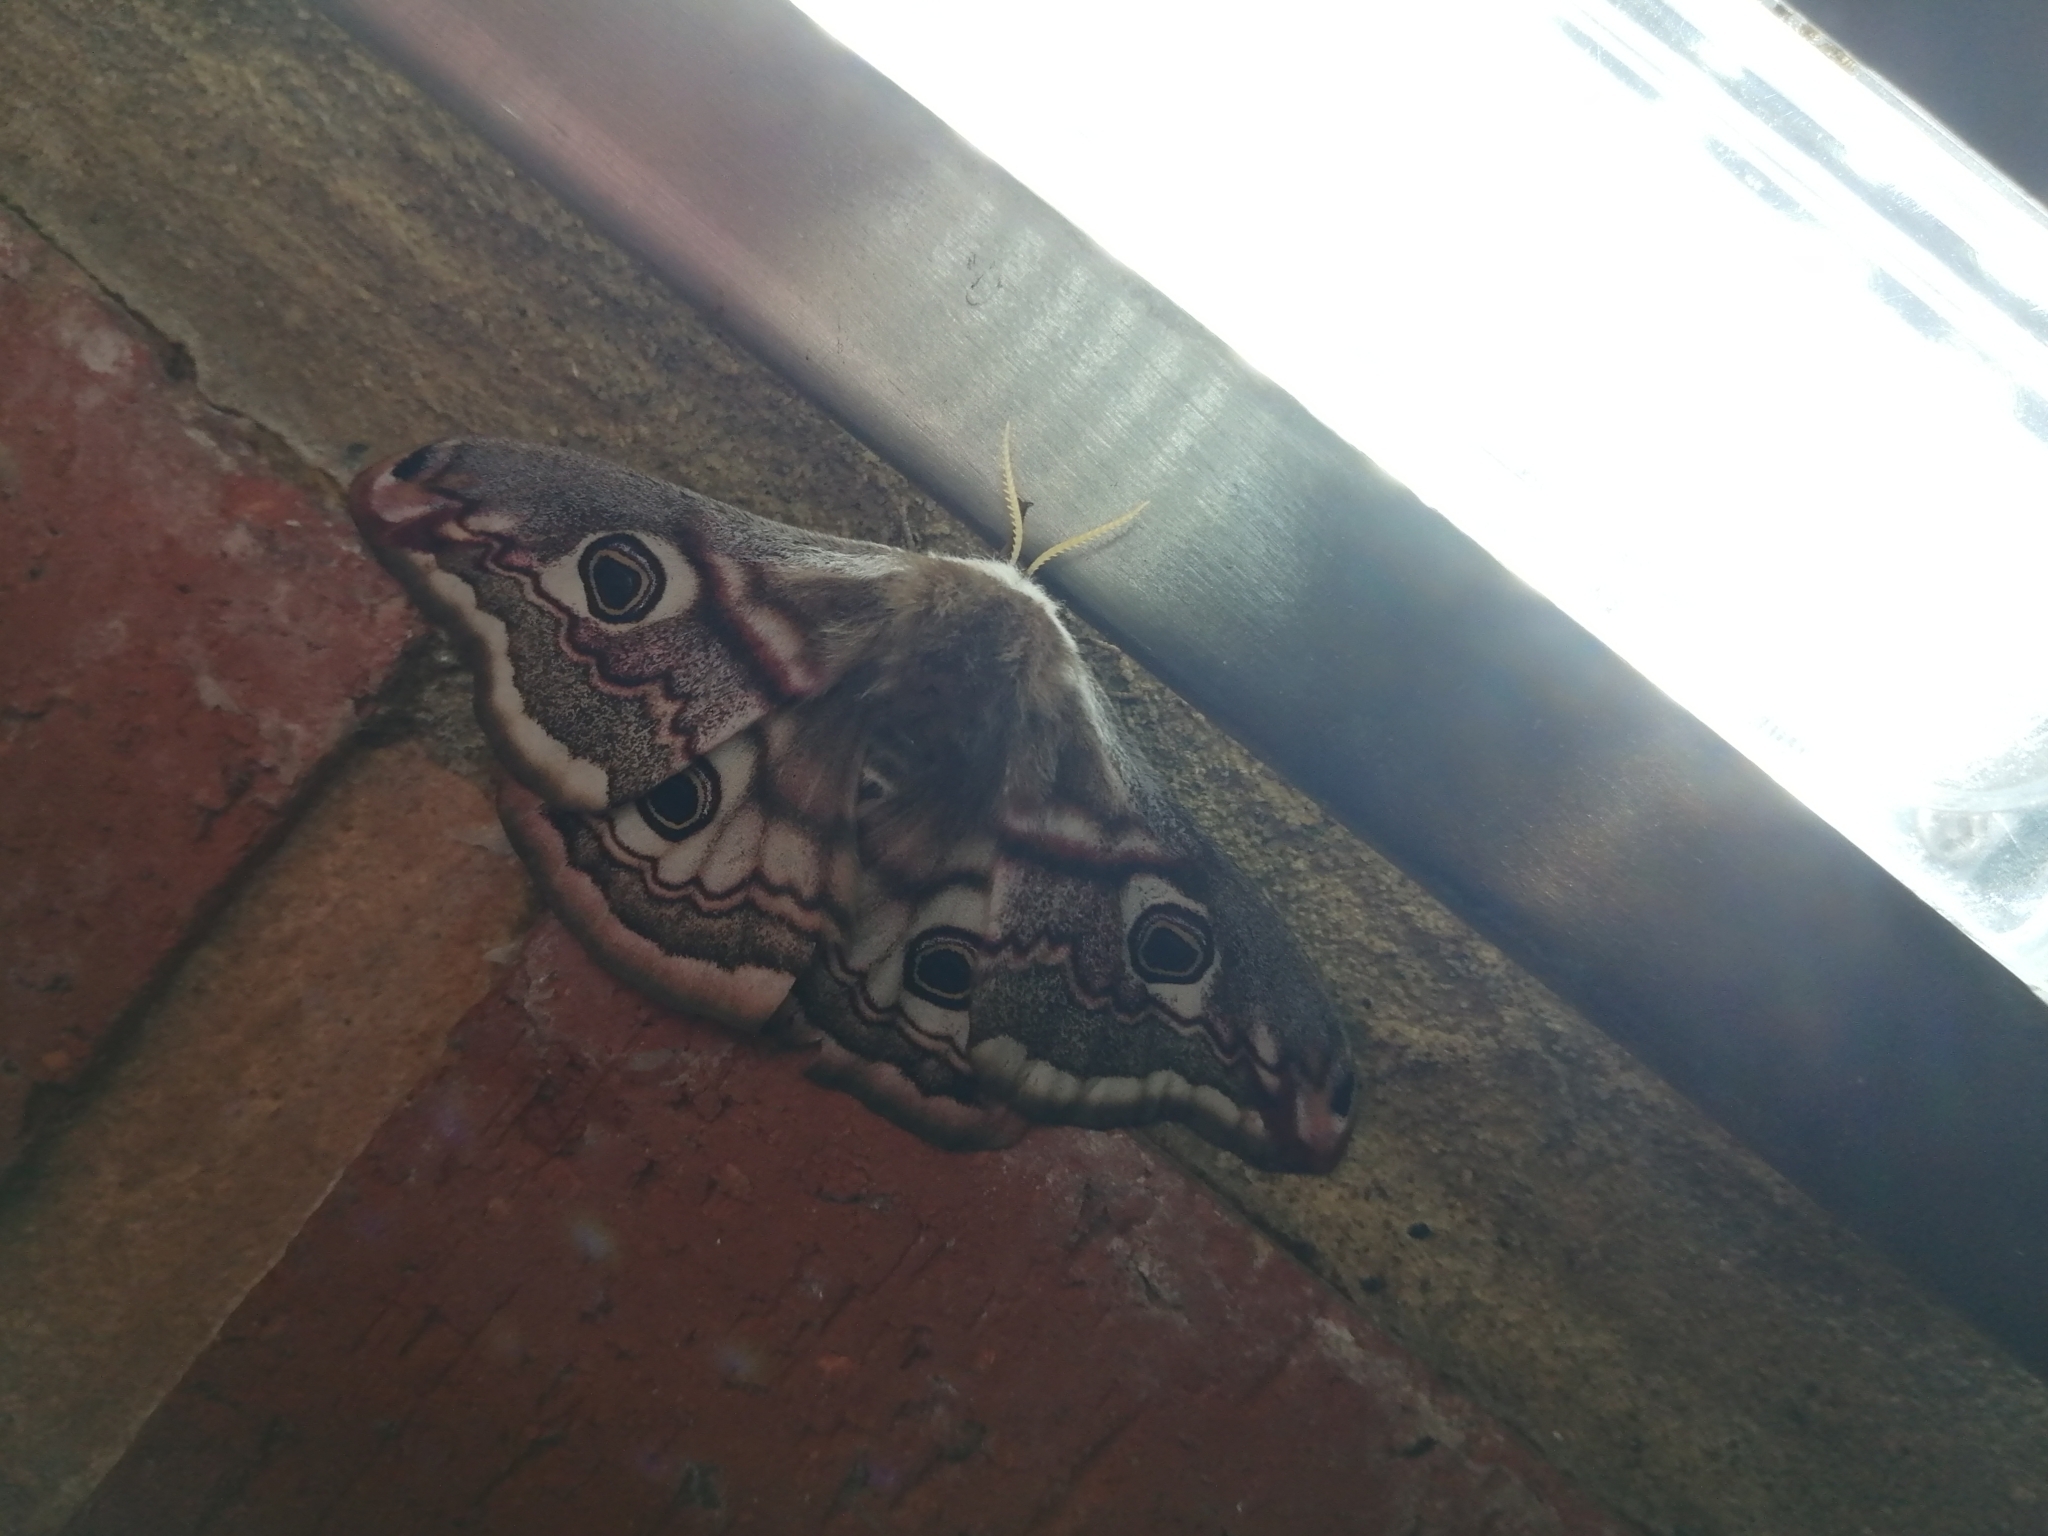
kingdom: Animalia
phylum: Arthropoda
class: Insecta
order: Lepidoptera
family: Saturniidae
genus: Saturnia
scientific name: Saturnia pavonia
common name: Emperor moth
